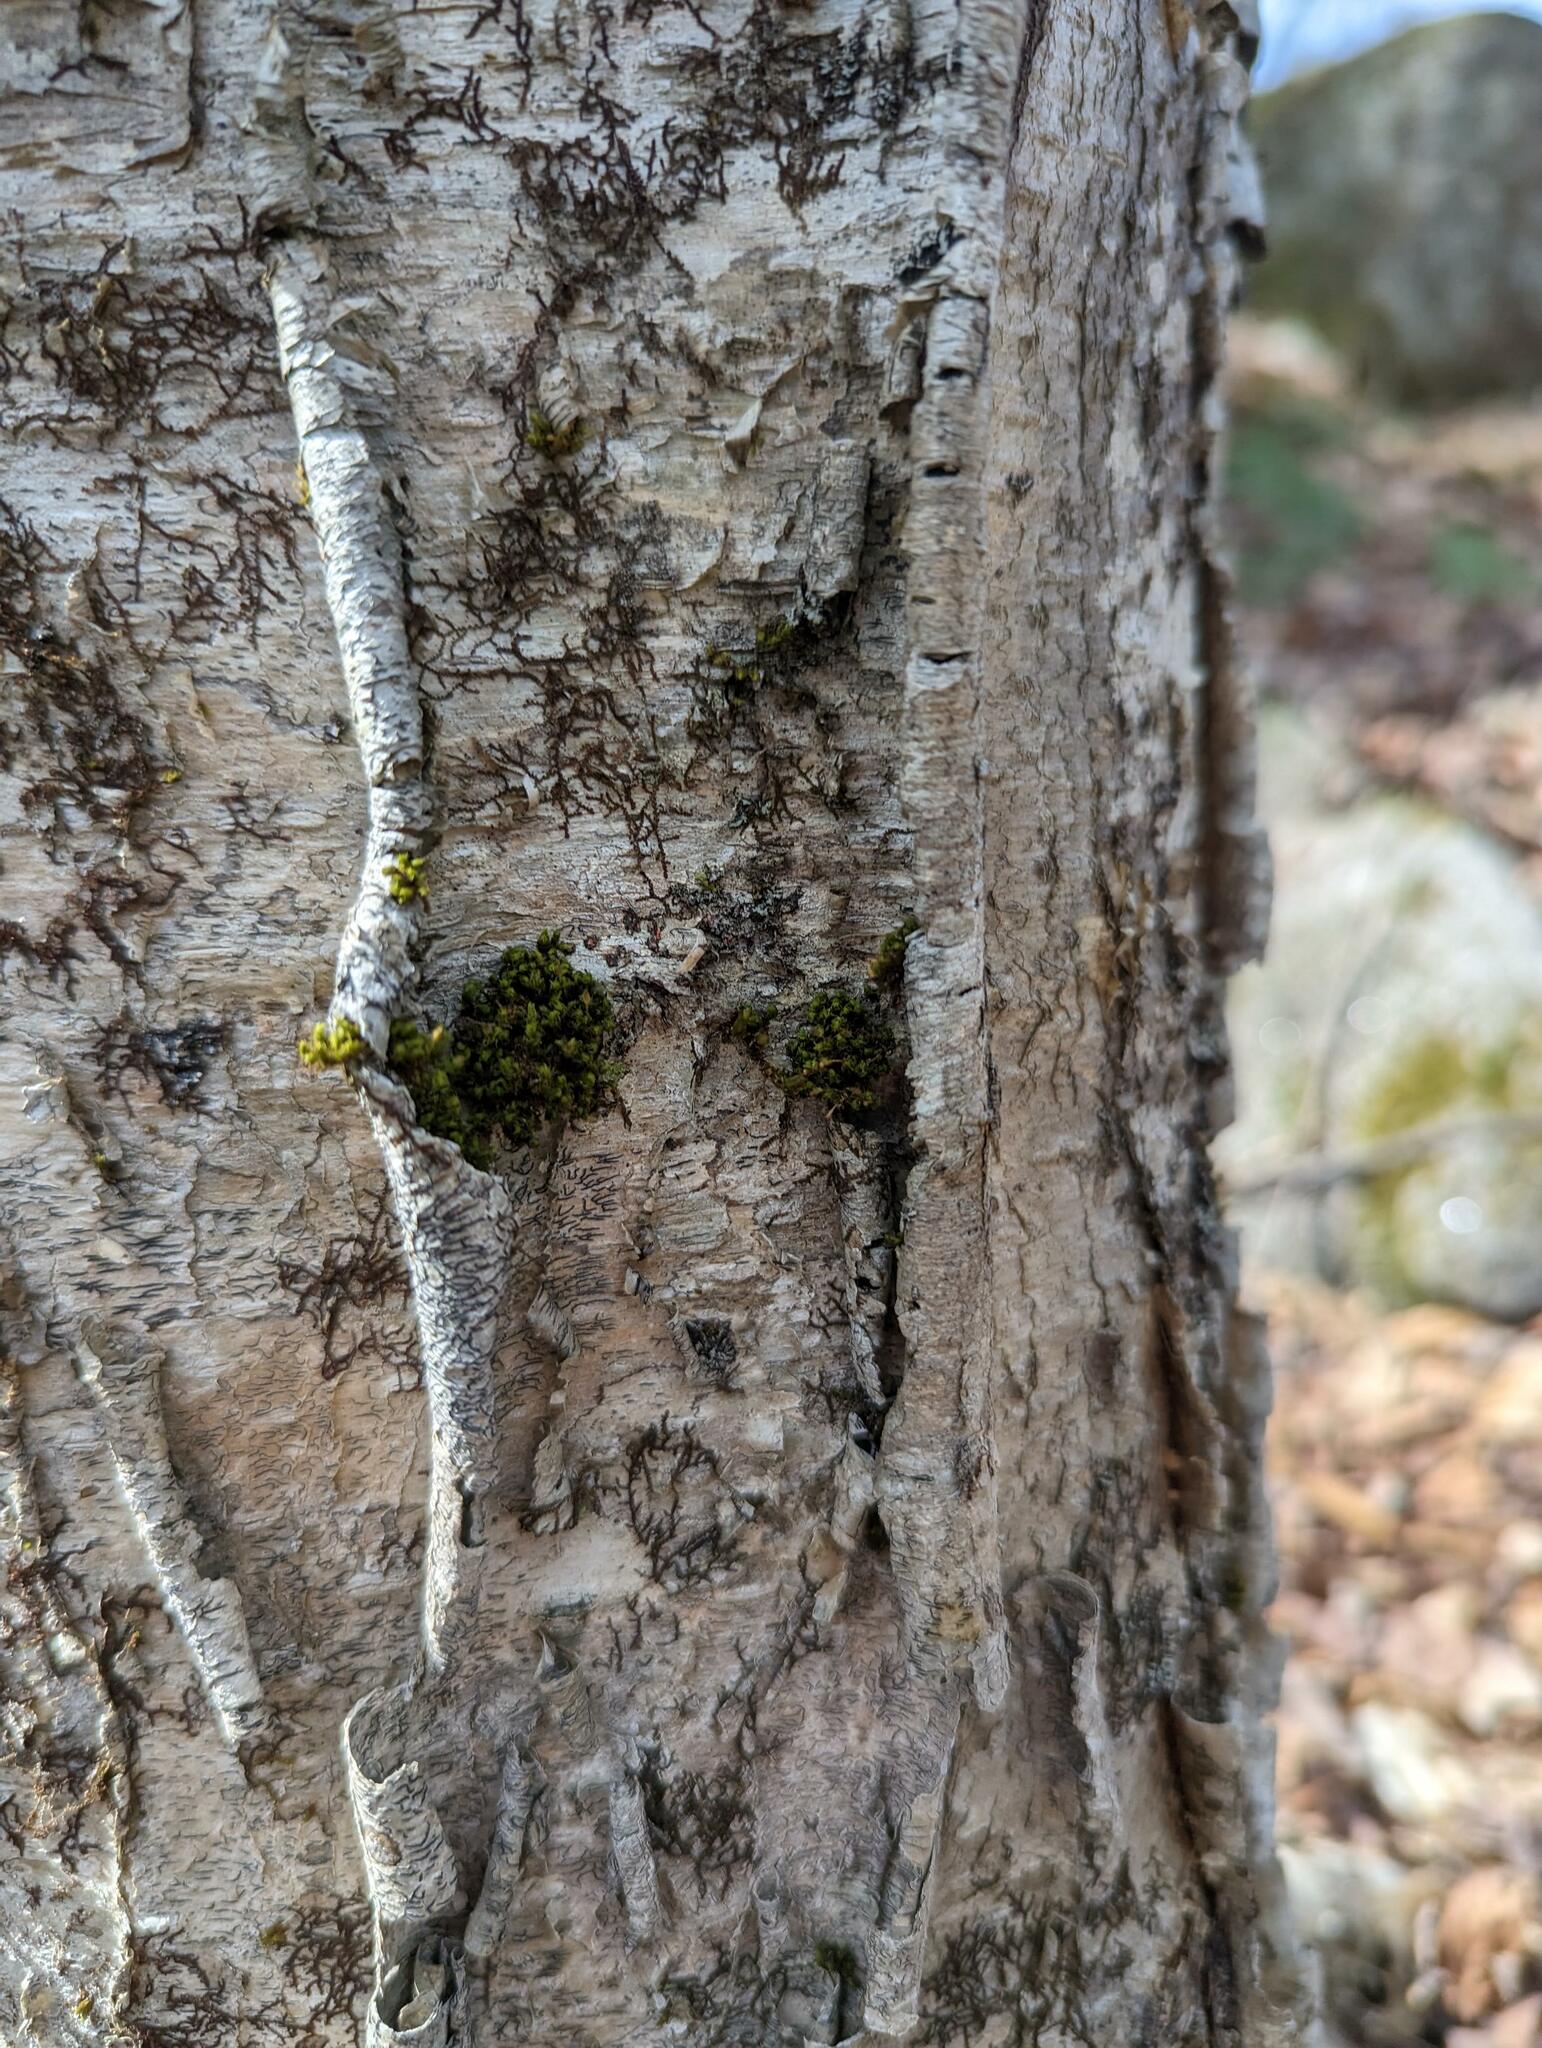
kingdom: Plantae
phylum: Bryophyta
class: Bryopsida
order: Orthotrichales
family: Orthotrichaceae
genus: Ulota
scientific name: Ulota crispa
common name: Crisped pincushion moss
